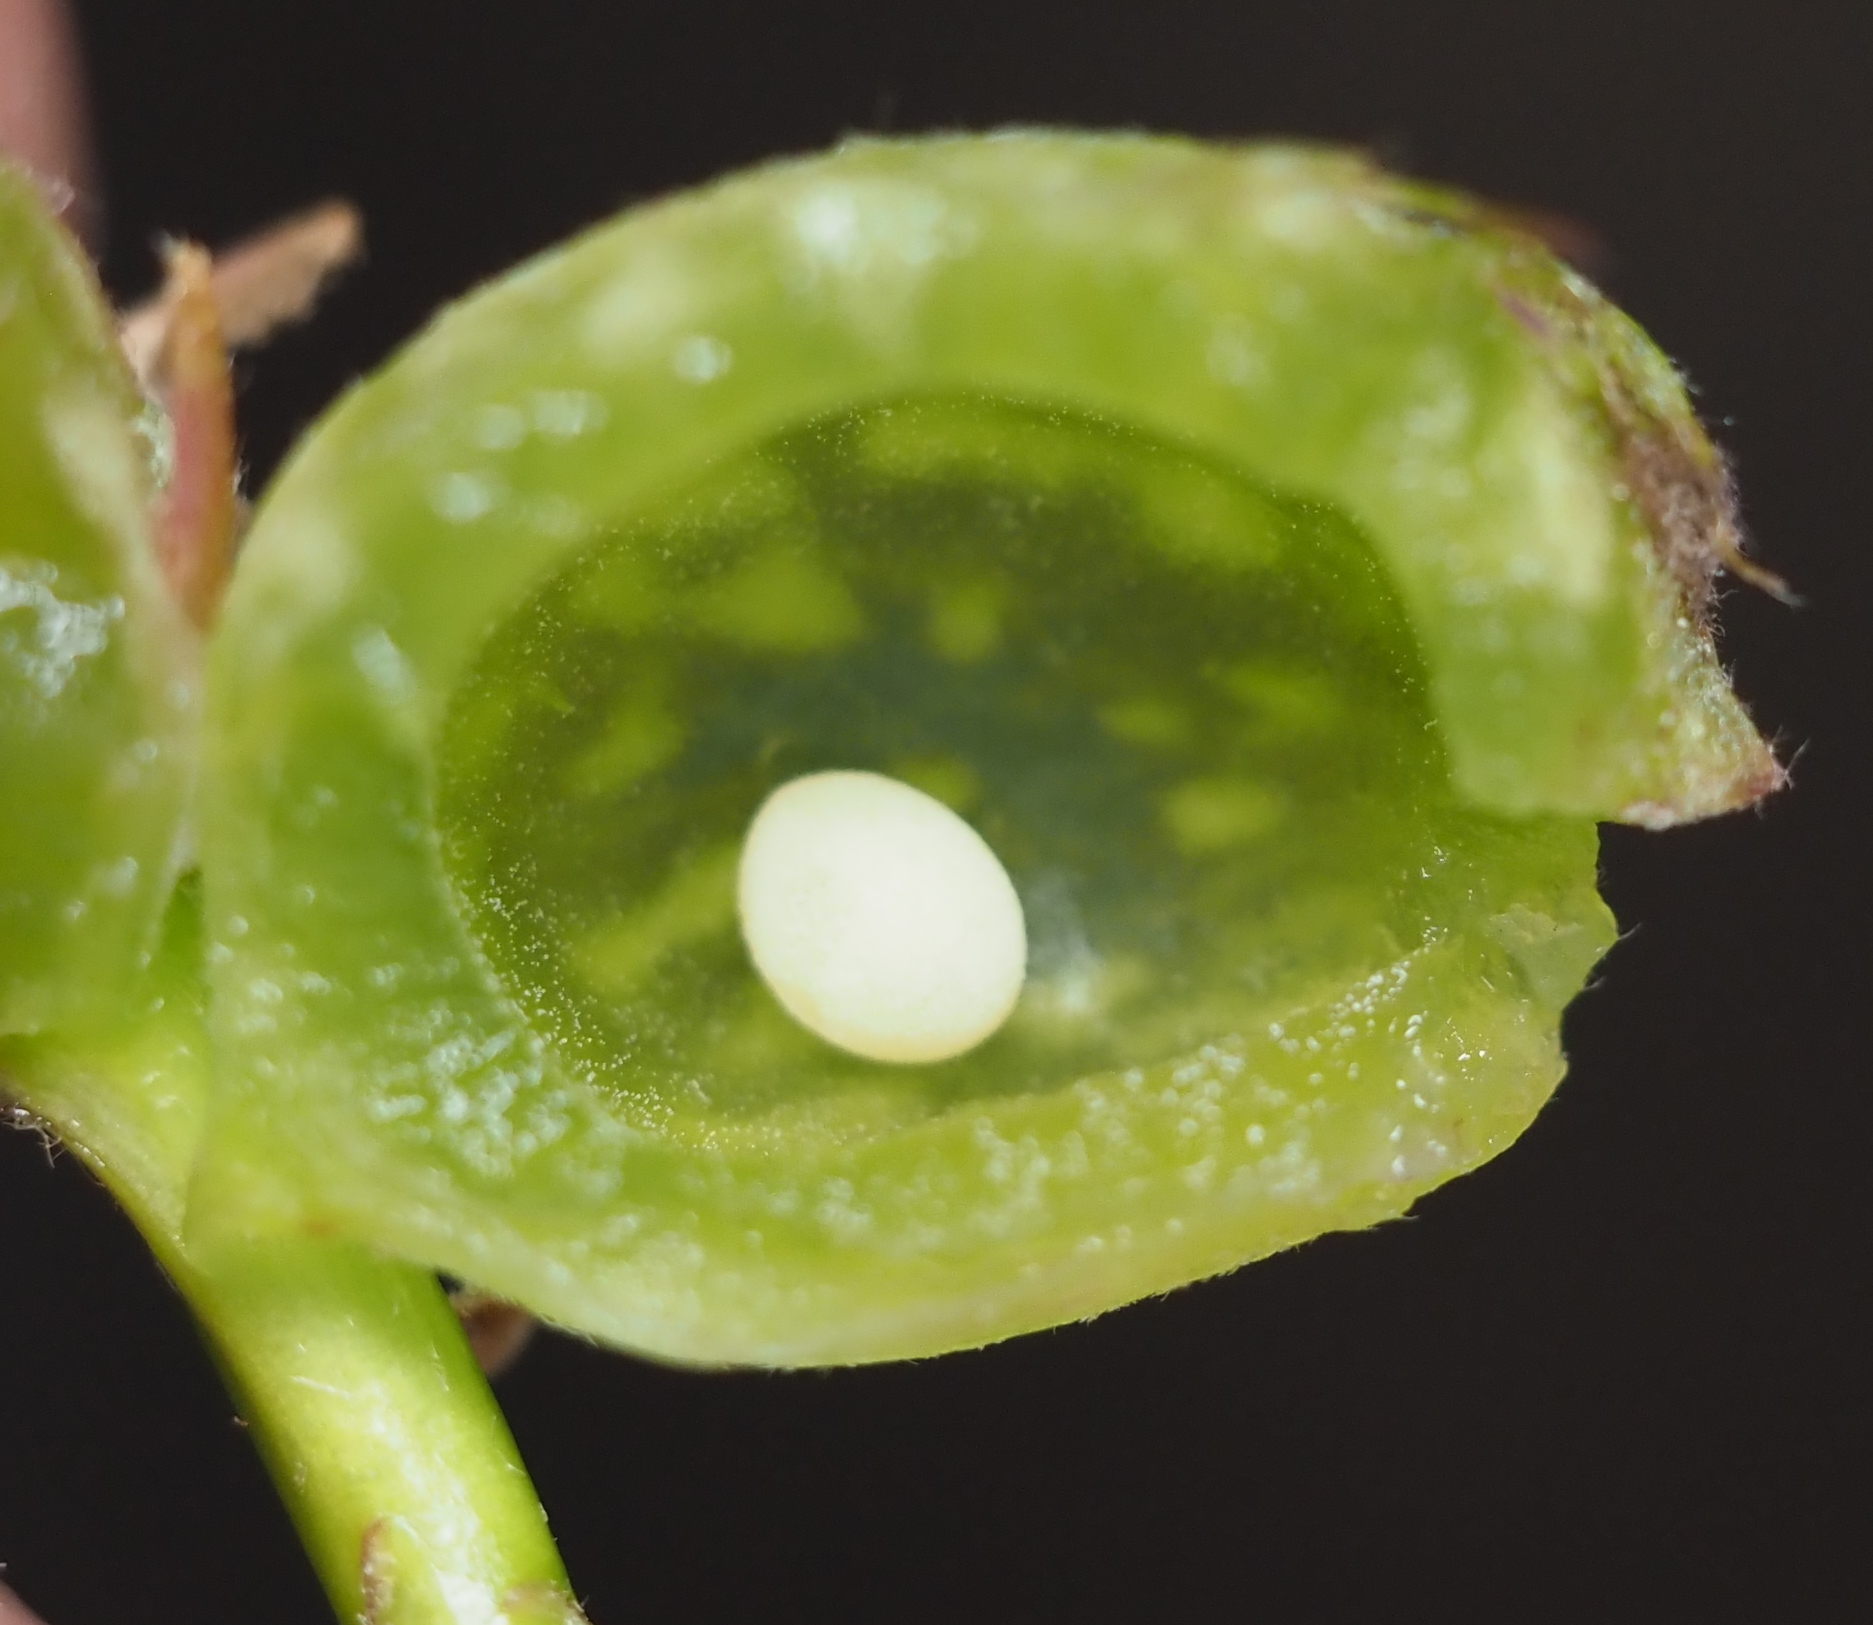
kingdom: Animalia
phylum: Arthropoda
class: Insecta
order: Hymenoptera
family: Cynipidae
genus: Dryocosmus
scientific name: Dryocosmus quercuspalustris
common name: Succulent oak gall wasp
